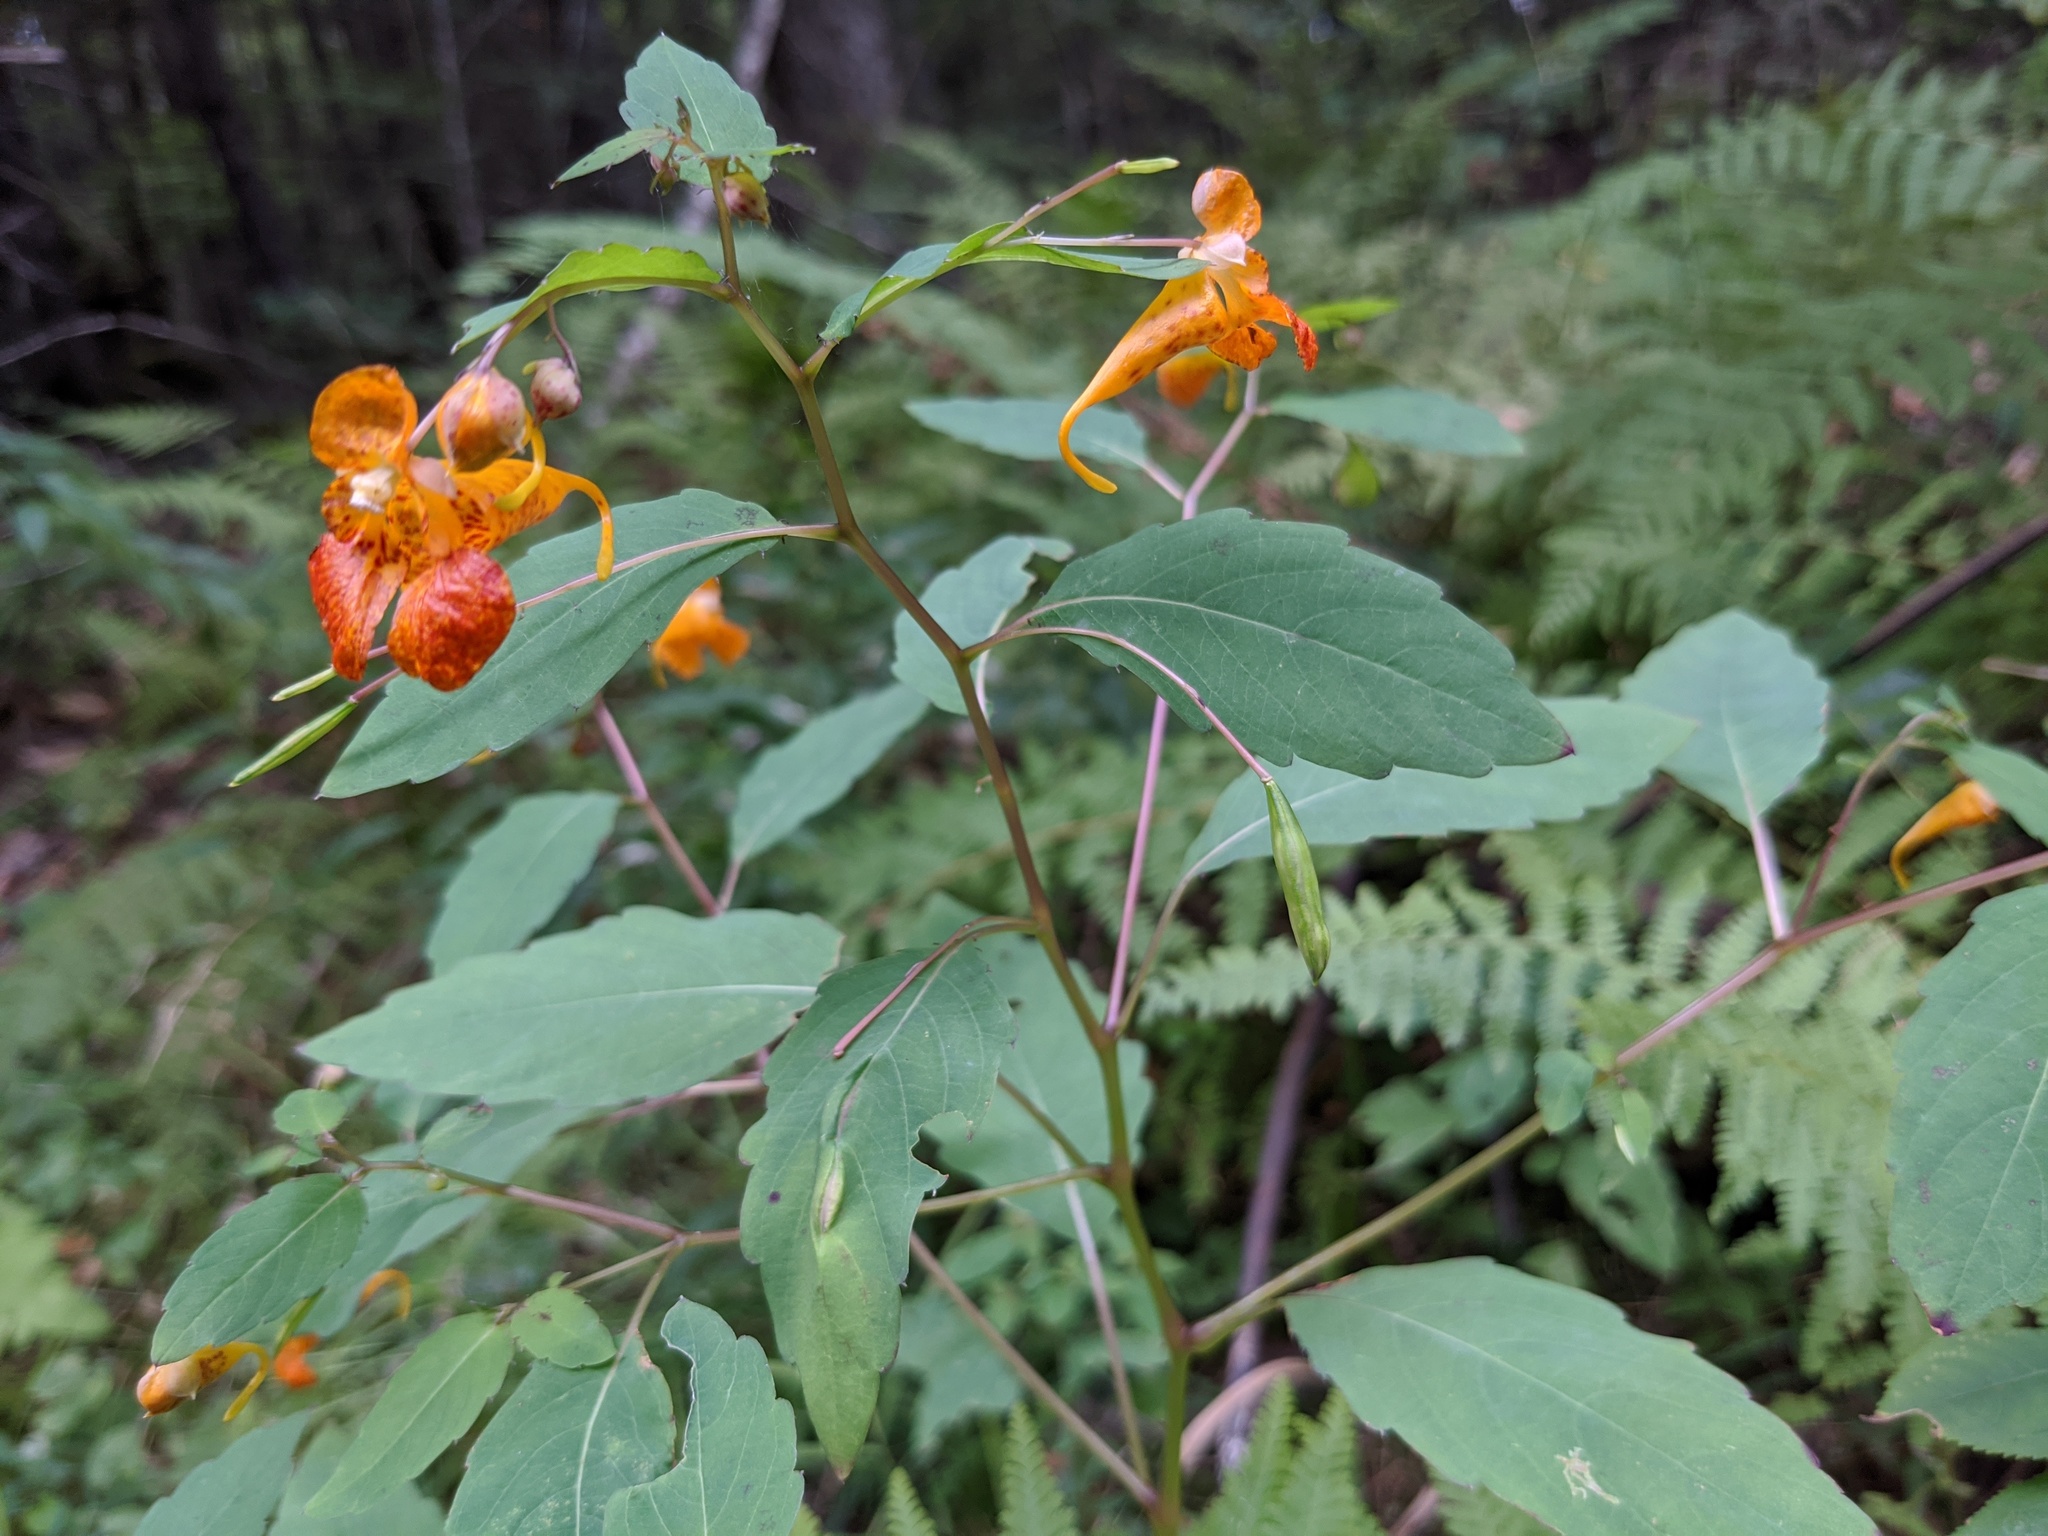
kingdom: Plantae
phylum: Tracheophyta
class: Magnoliopsida
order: Ericales
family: Balsaminaceae
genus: Impatiens
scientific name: Impatiens capensis
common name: Orange balsam
